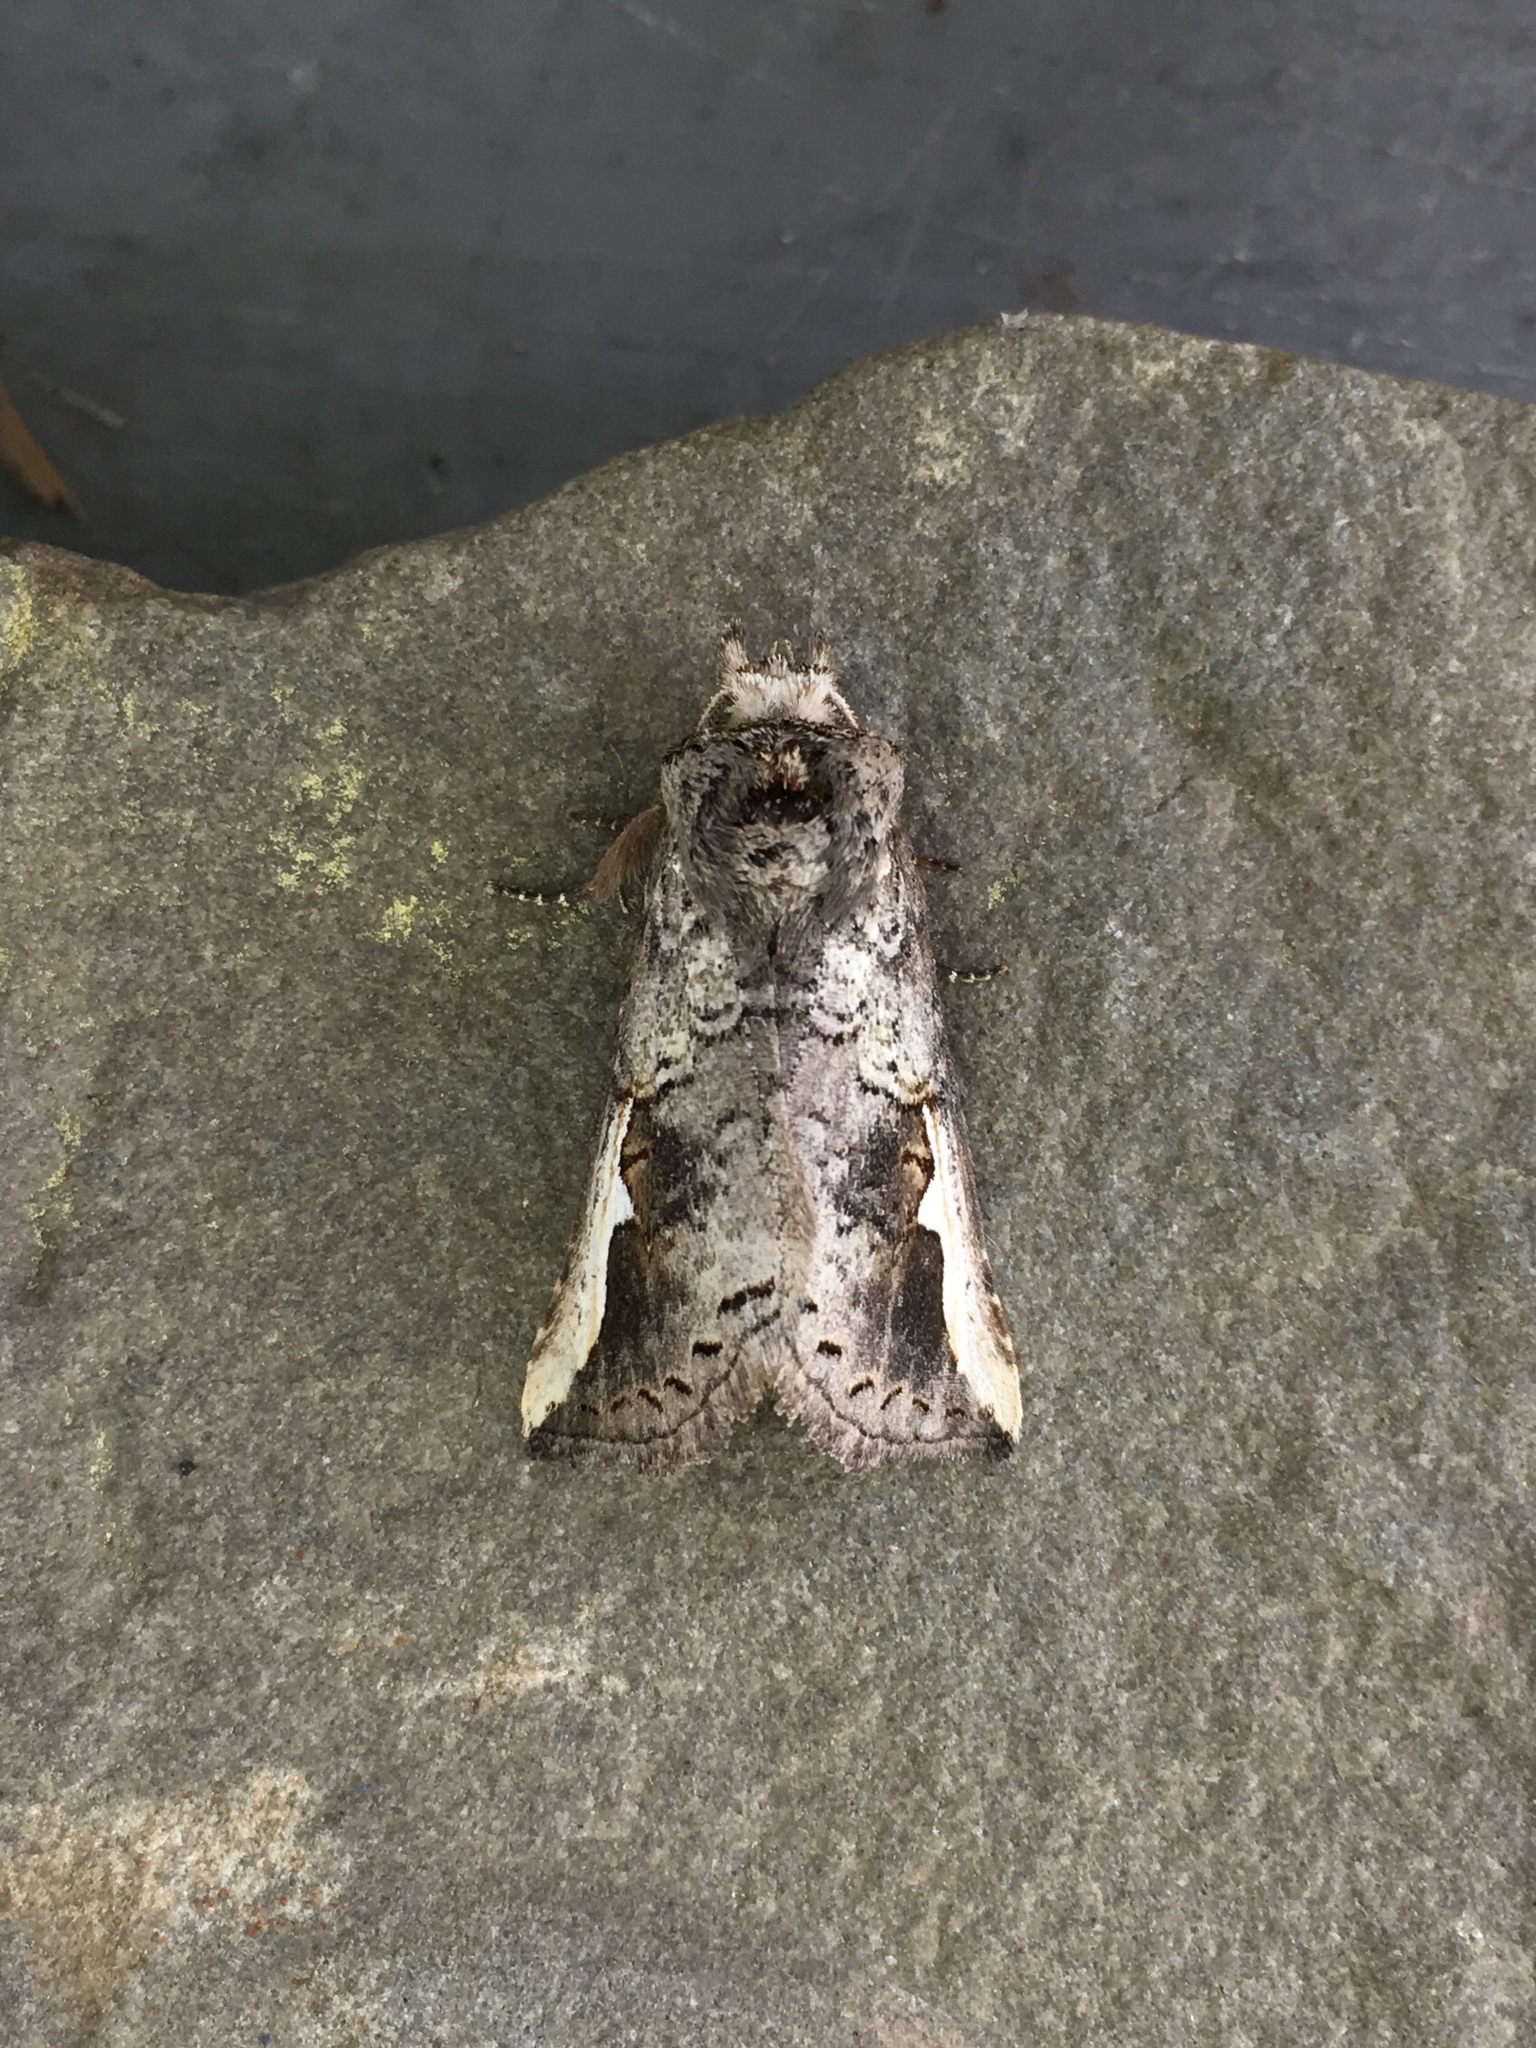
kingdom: Animalia
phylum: Arthropoda
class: Insecta
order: Lepidoptera
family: Notodontidae
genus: Symmerista
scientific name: Symmerista
